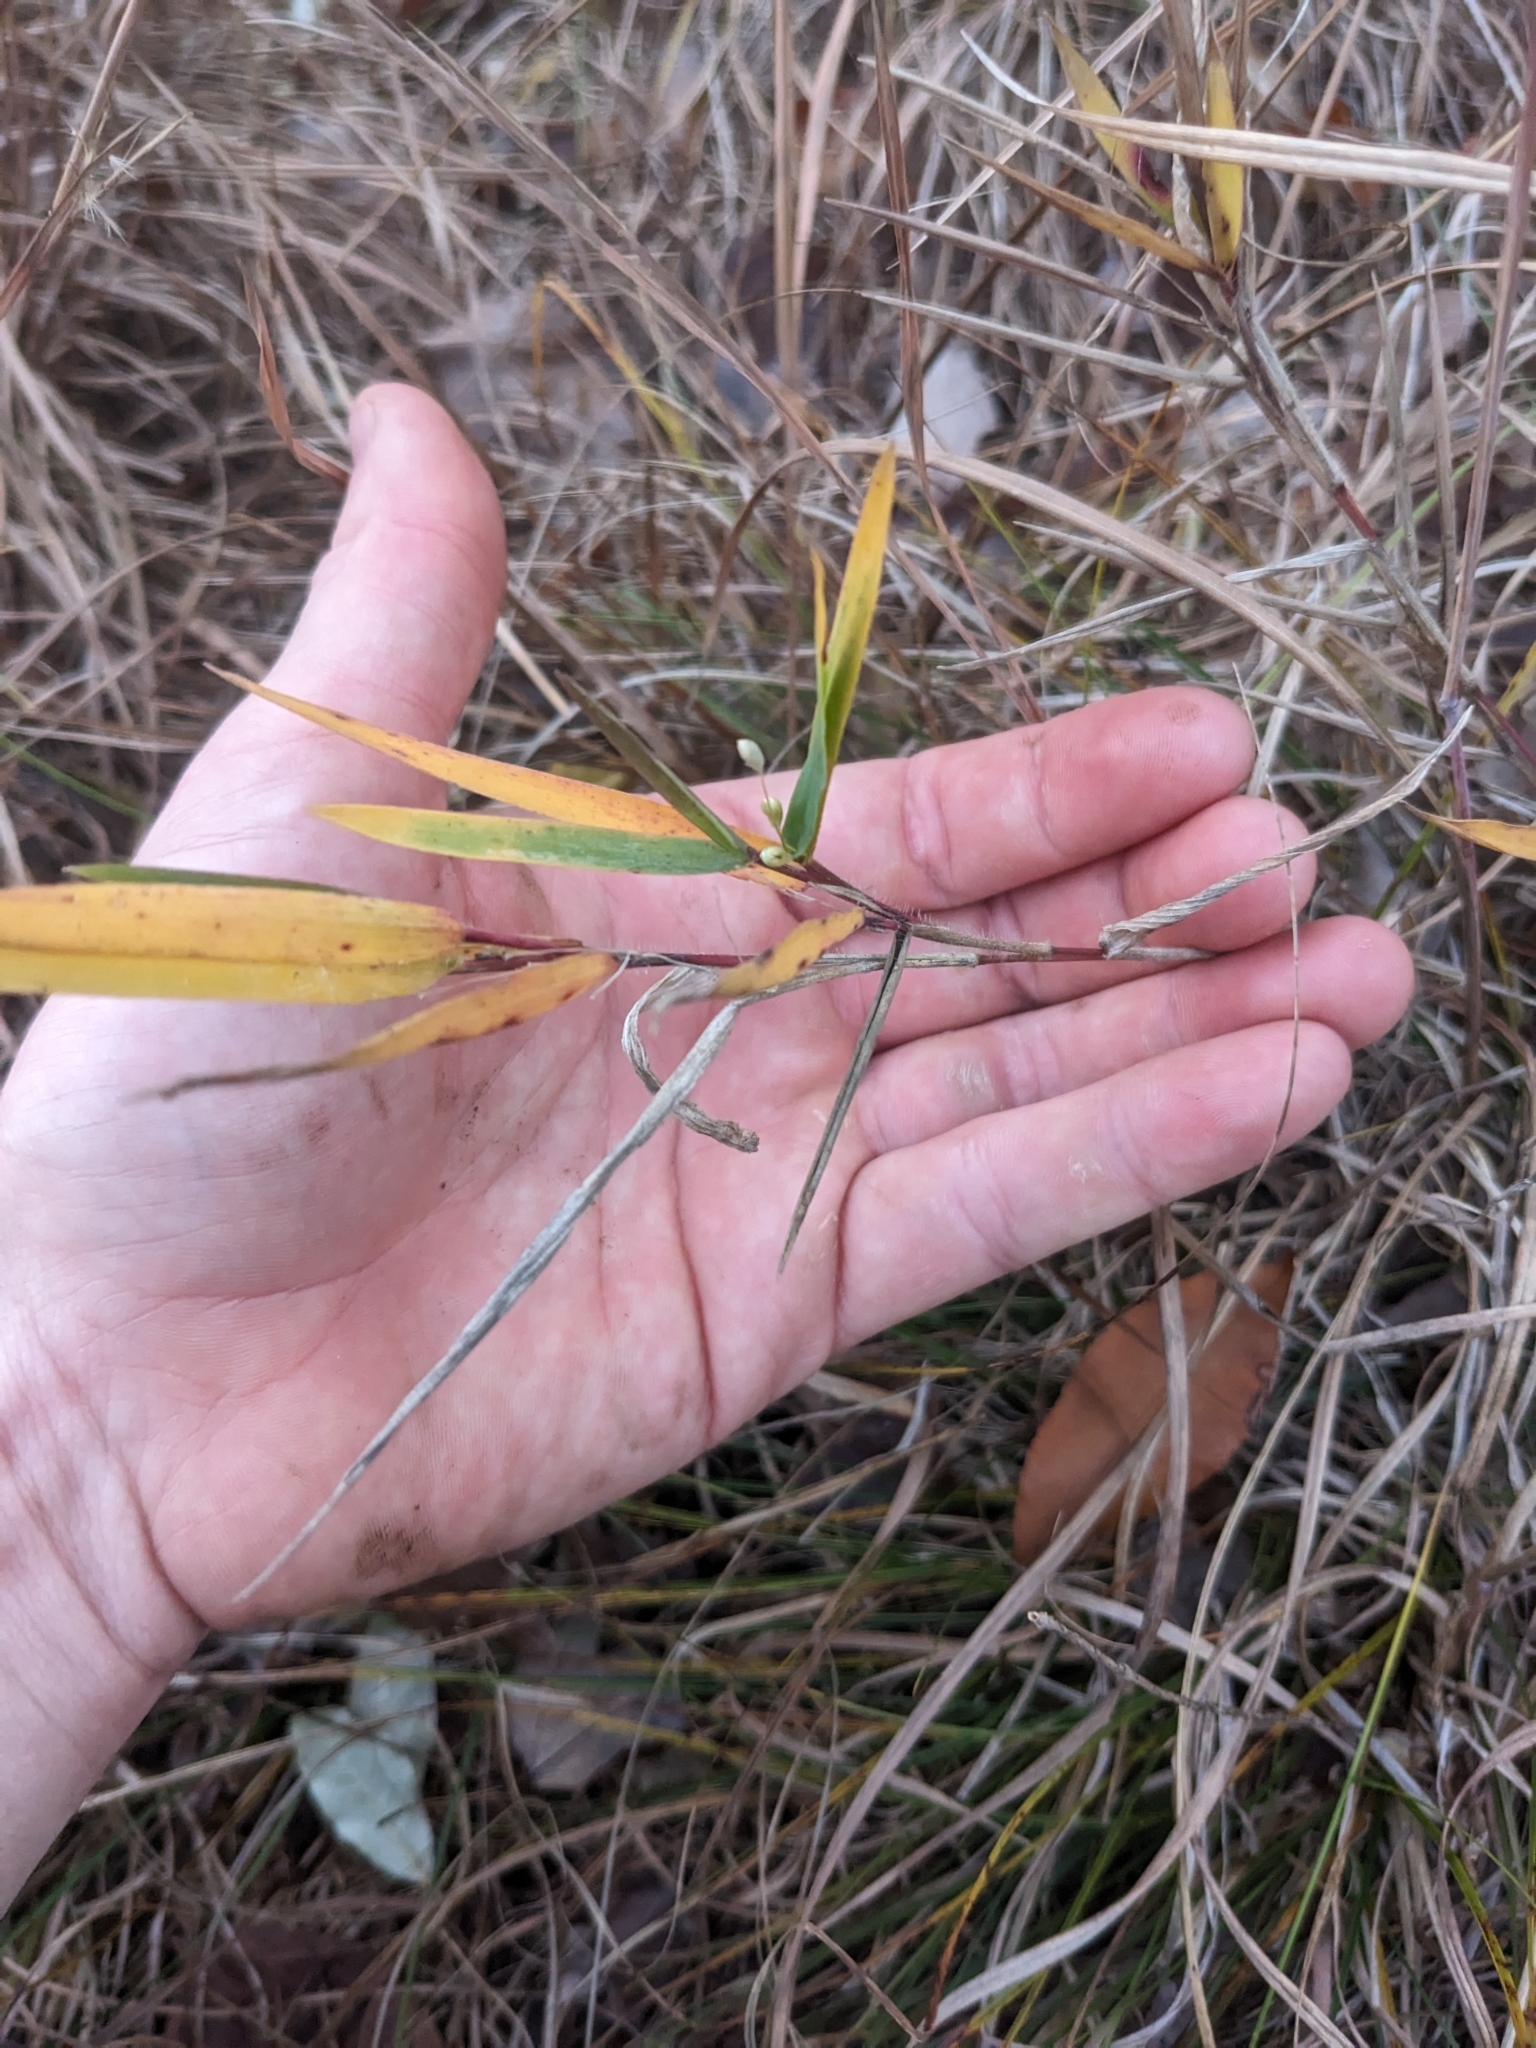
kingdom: Plantae
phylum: Tracheophyta
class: Liliopsida
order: Poales
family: Poaceae
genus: Dichanthelium
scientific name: Dichanthelium scribnerianum
